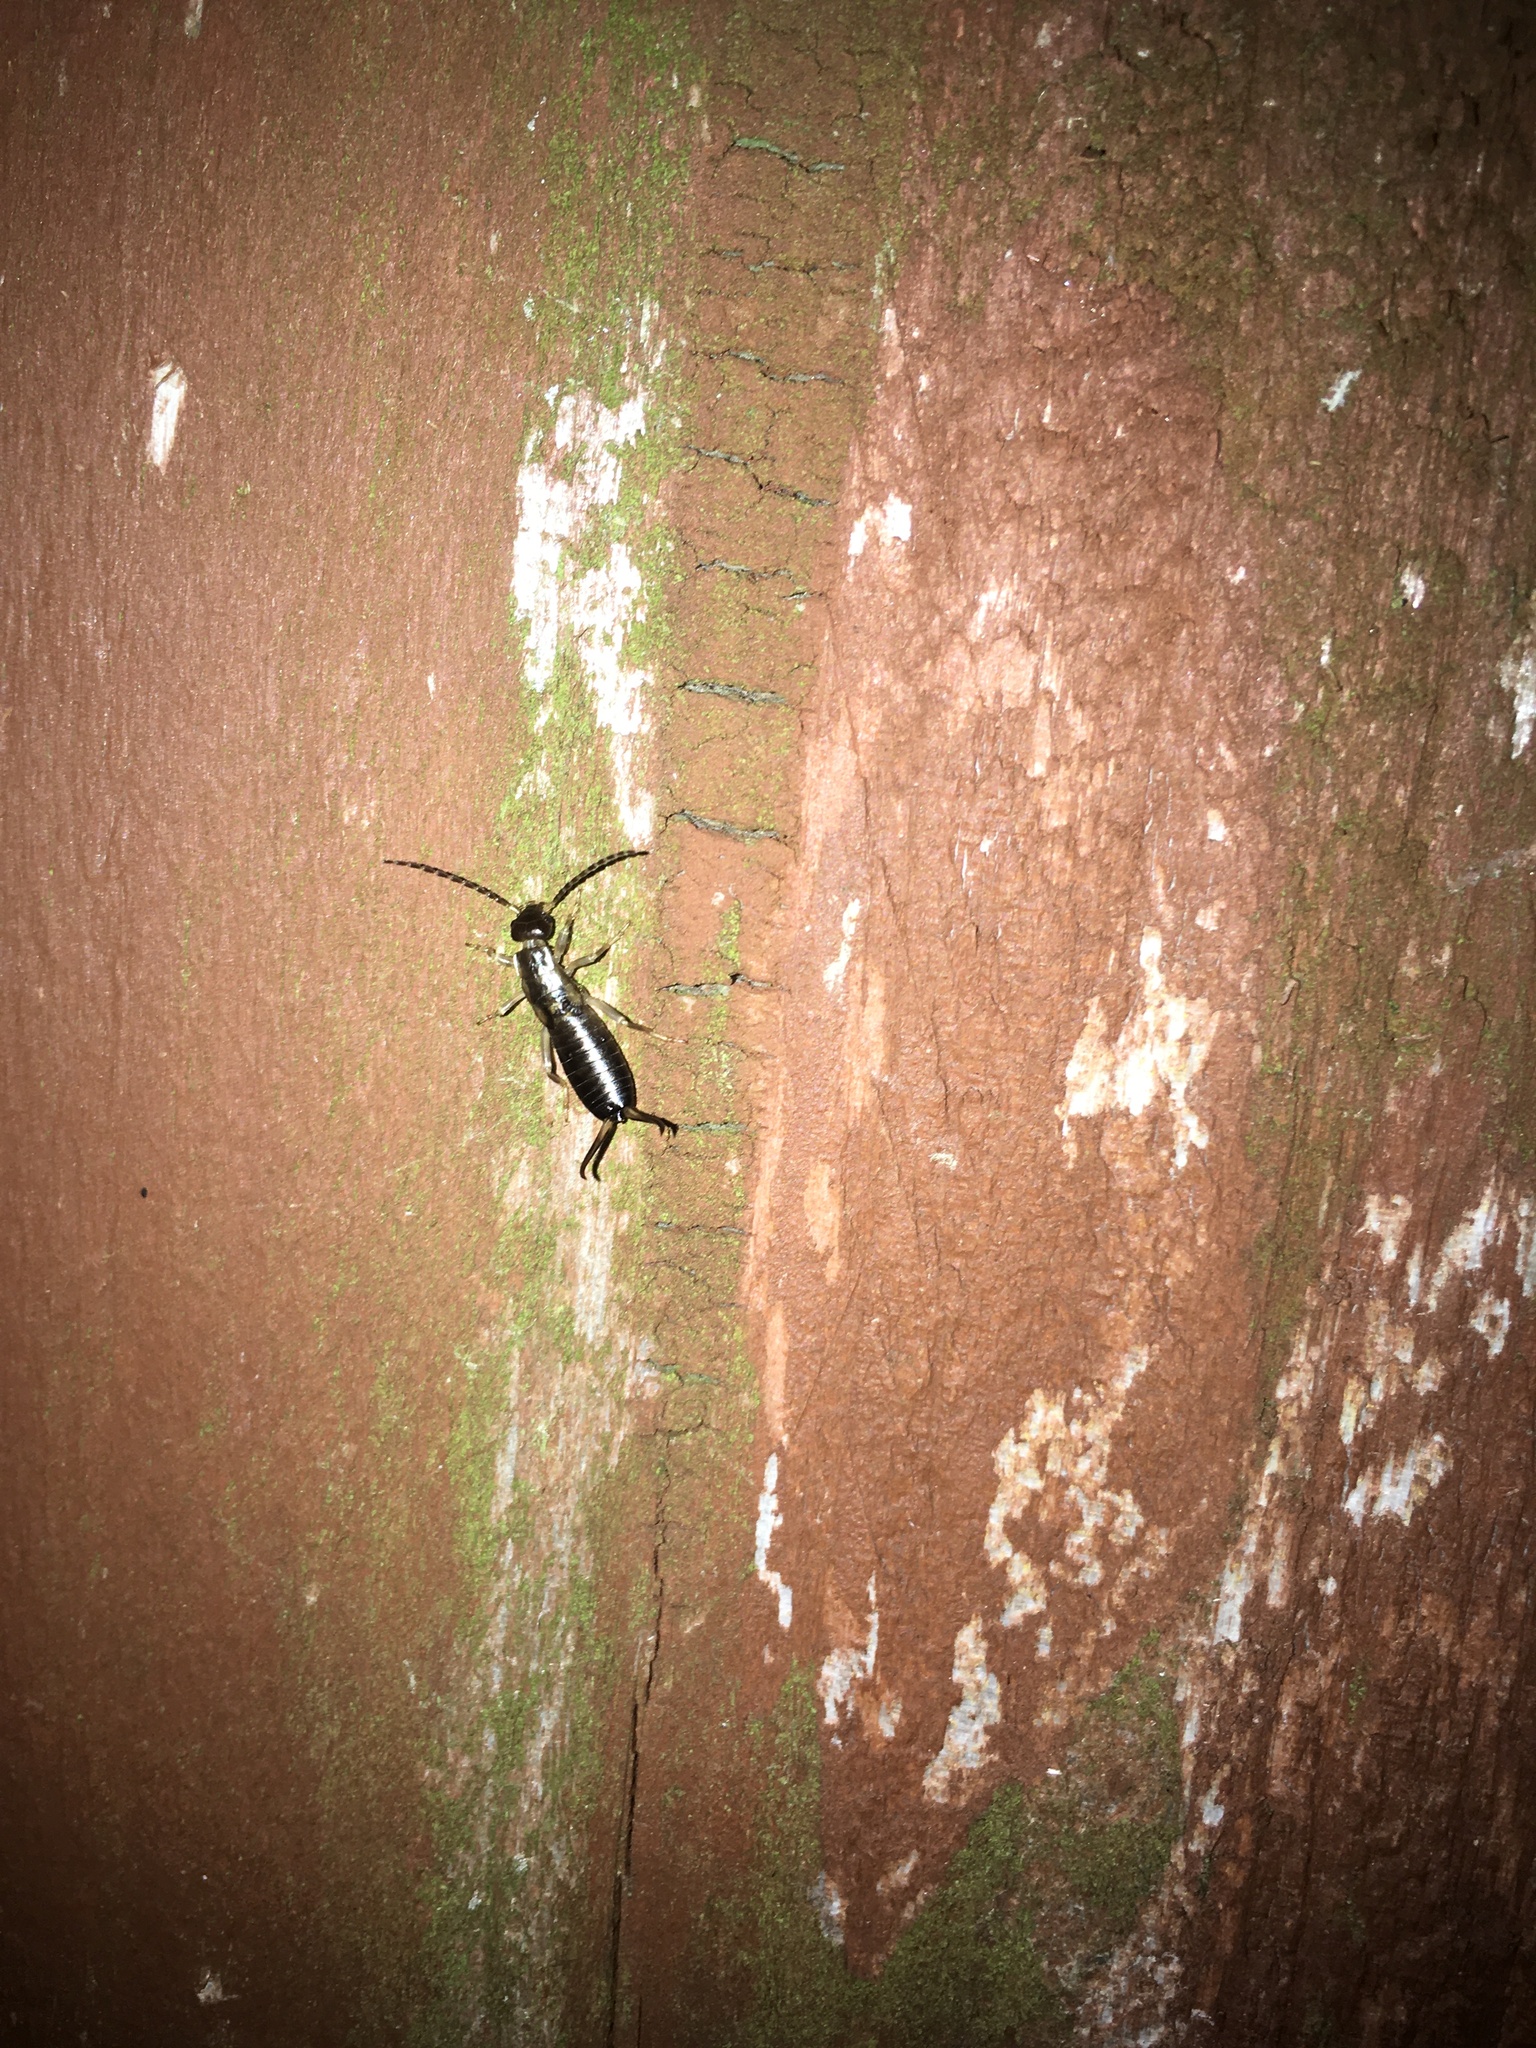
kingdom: Animalia
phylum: Arthropoda
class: Insecta
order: Dermaptera
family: Forficulidae
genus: Forficula
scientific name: Forficula
